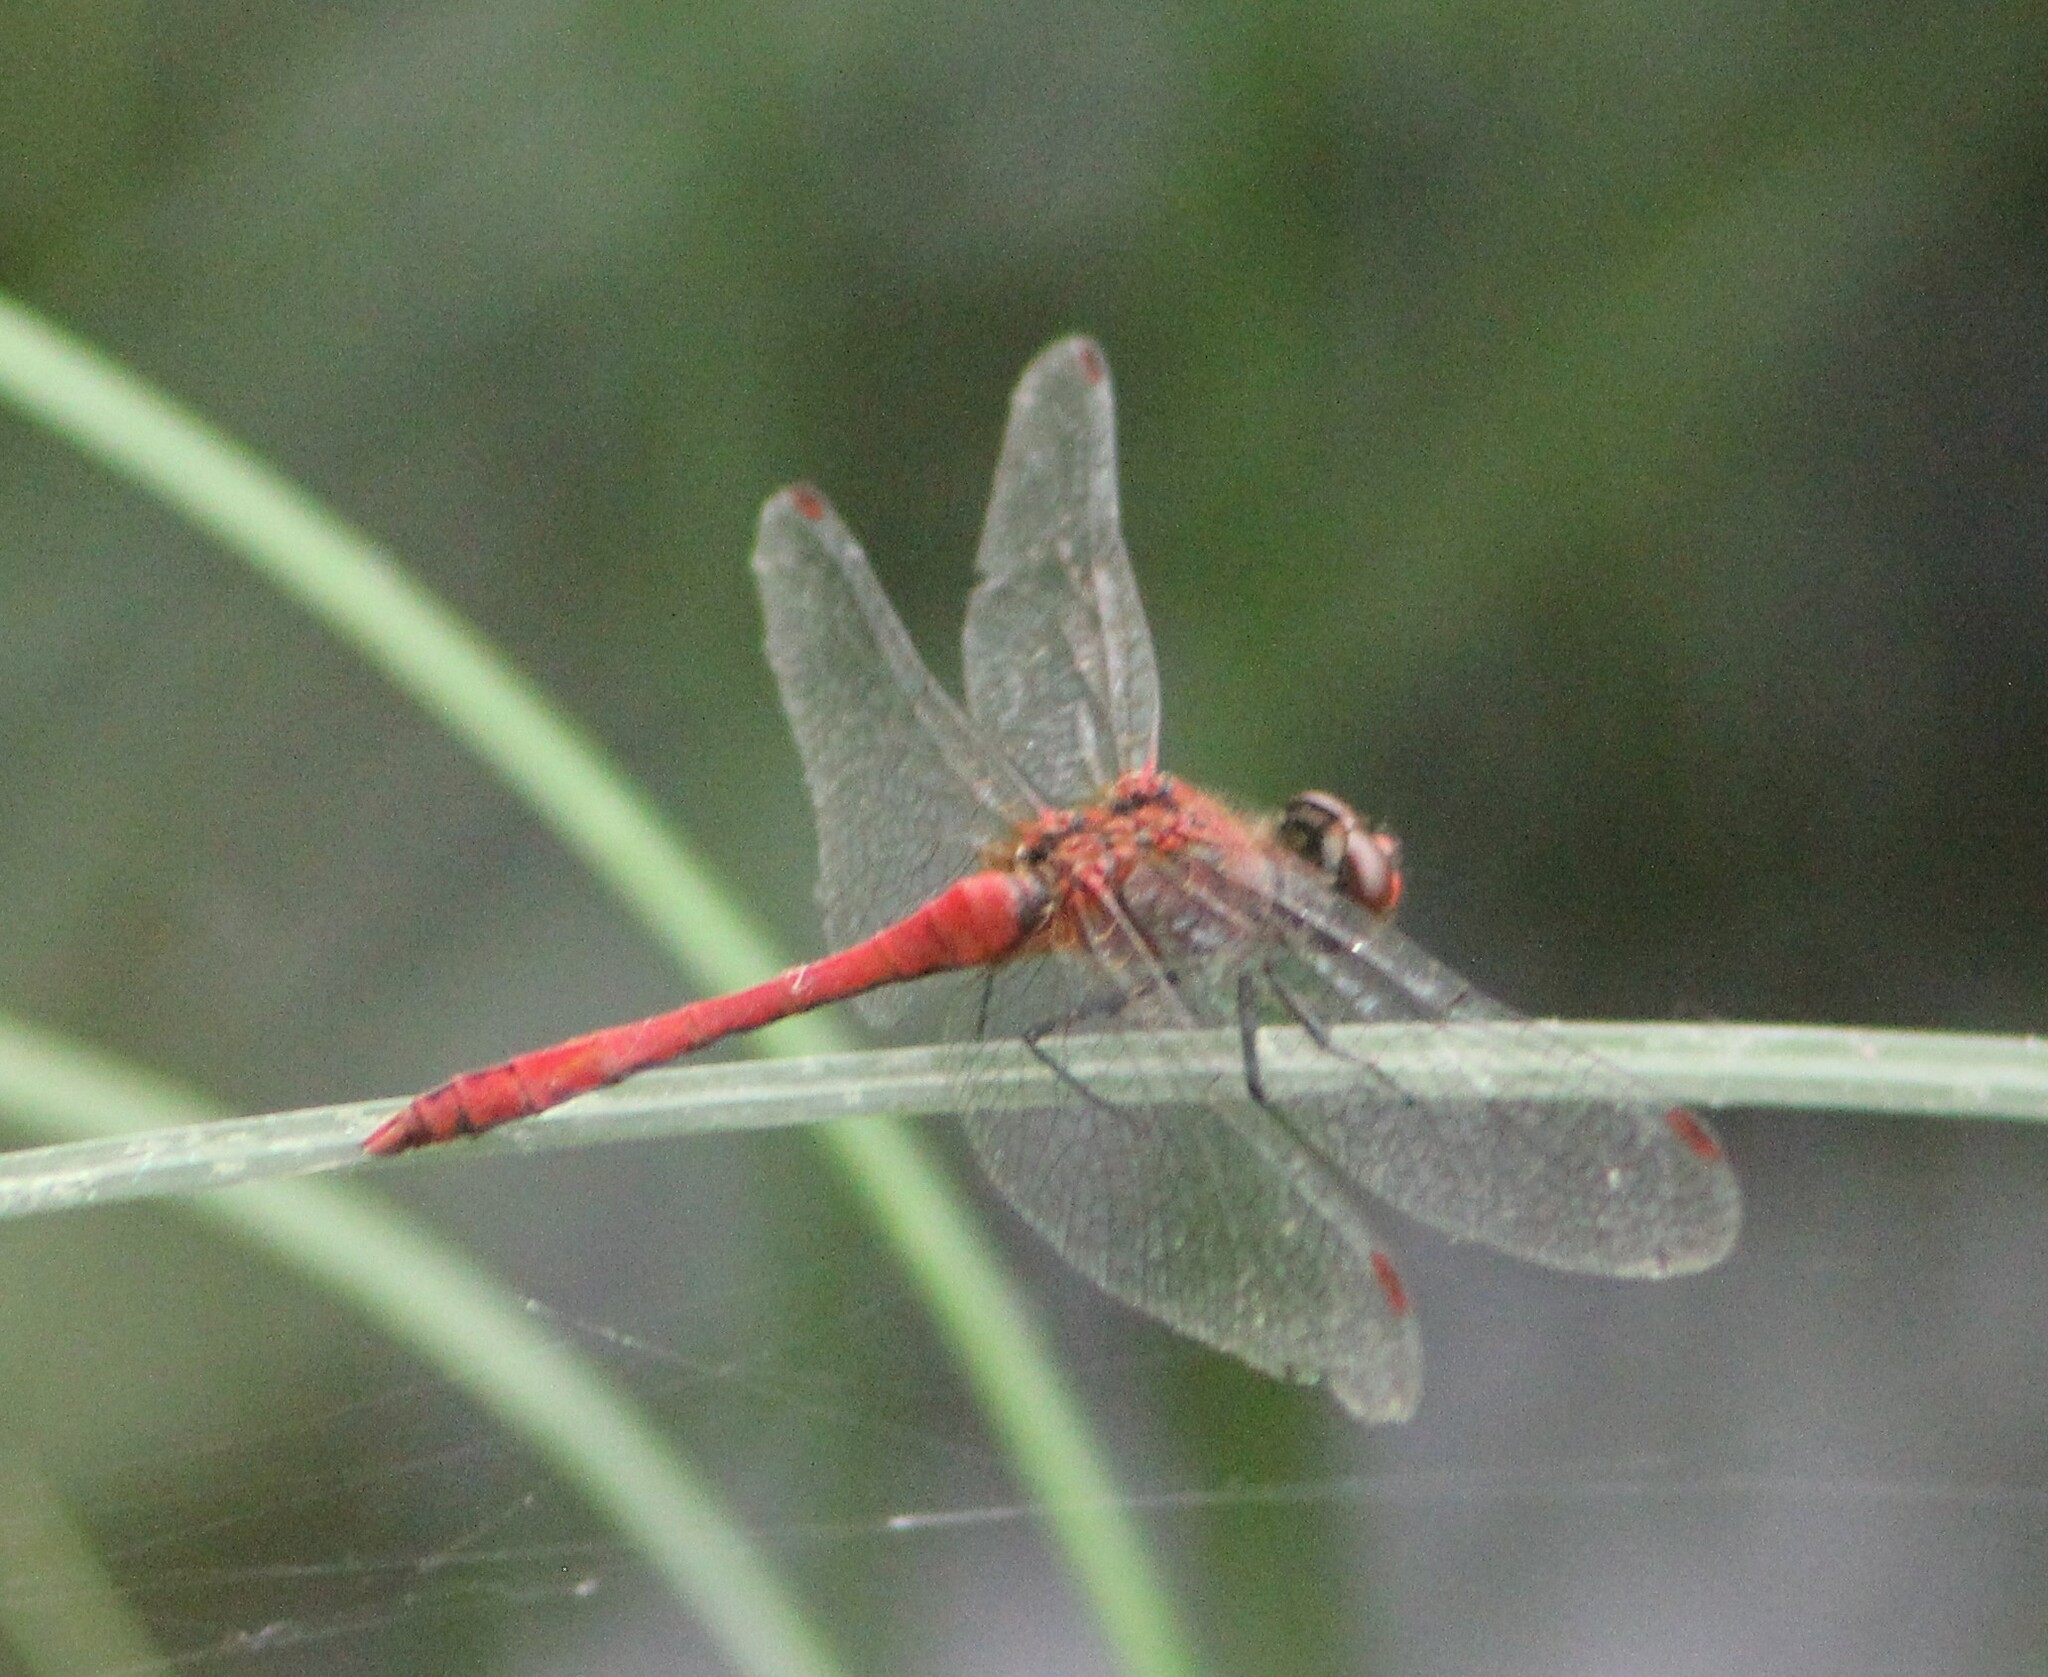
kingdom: Animalia
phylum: Arthropoda
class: Insecta
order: Odonata
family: Libellulidae
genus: Sympetrum
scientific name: Sympetrum sanguineum
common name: Ruddy darter
